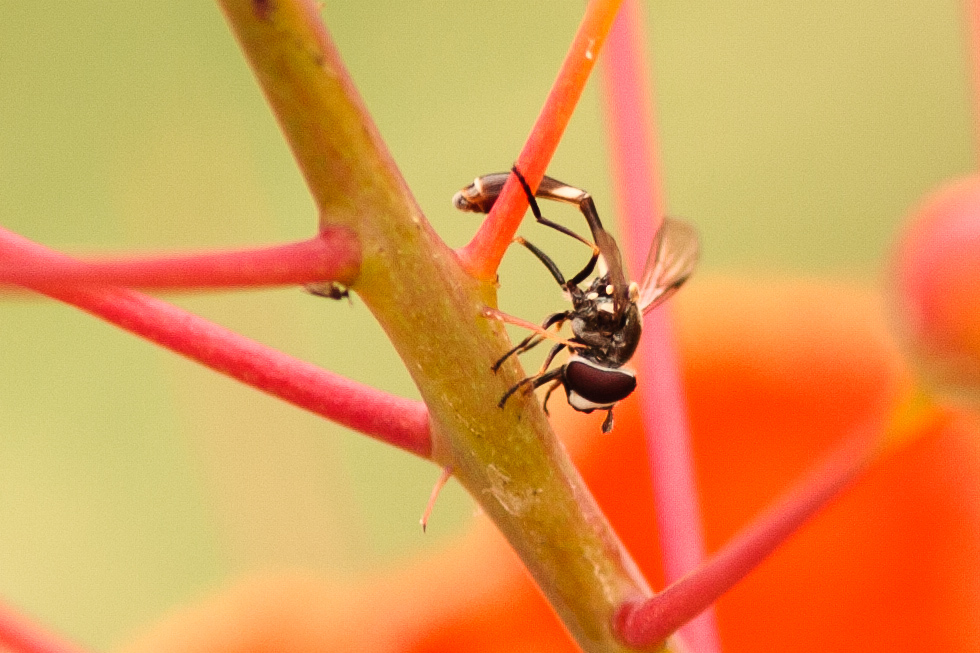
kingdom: Animalia
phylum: Arthropoda
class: Insecta
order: Diptera
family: Syrphidae
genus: Dioprosopa
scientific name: Dioprosopa clavatus
